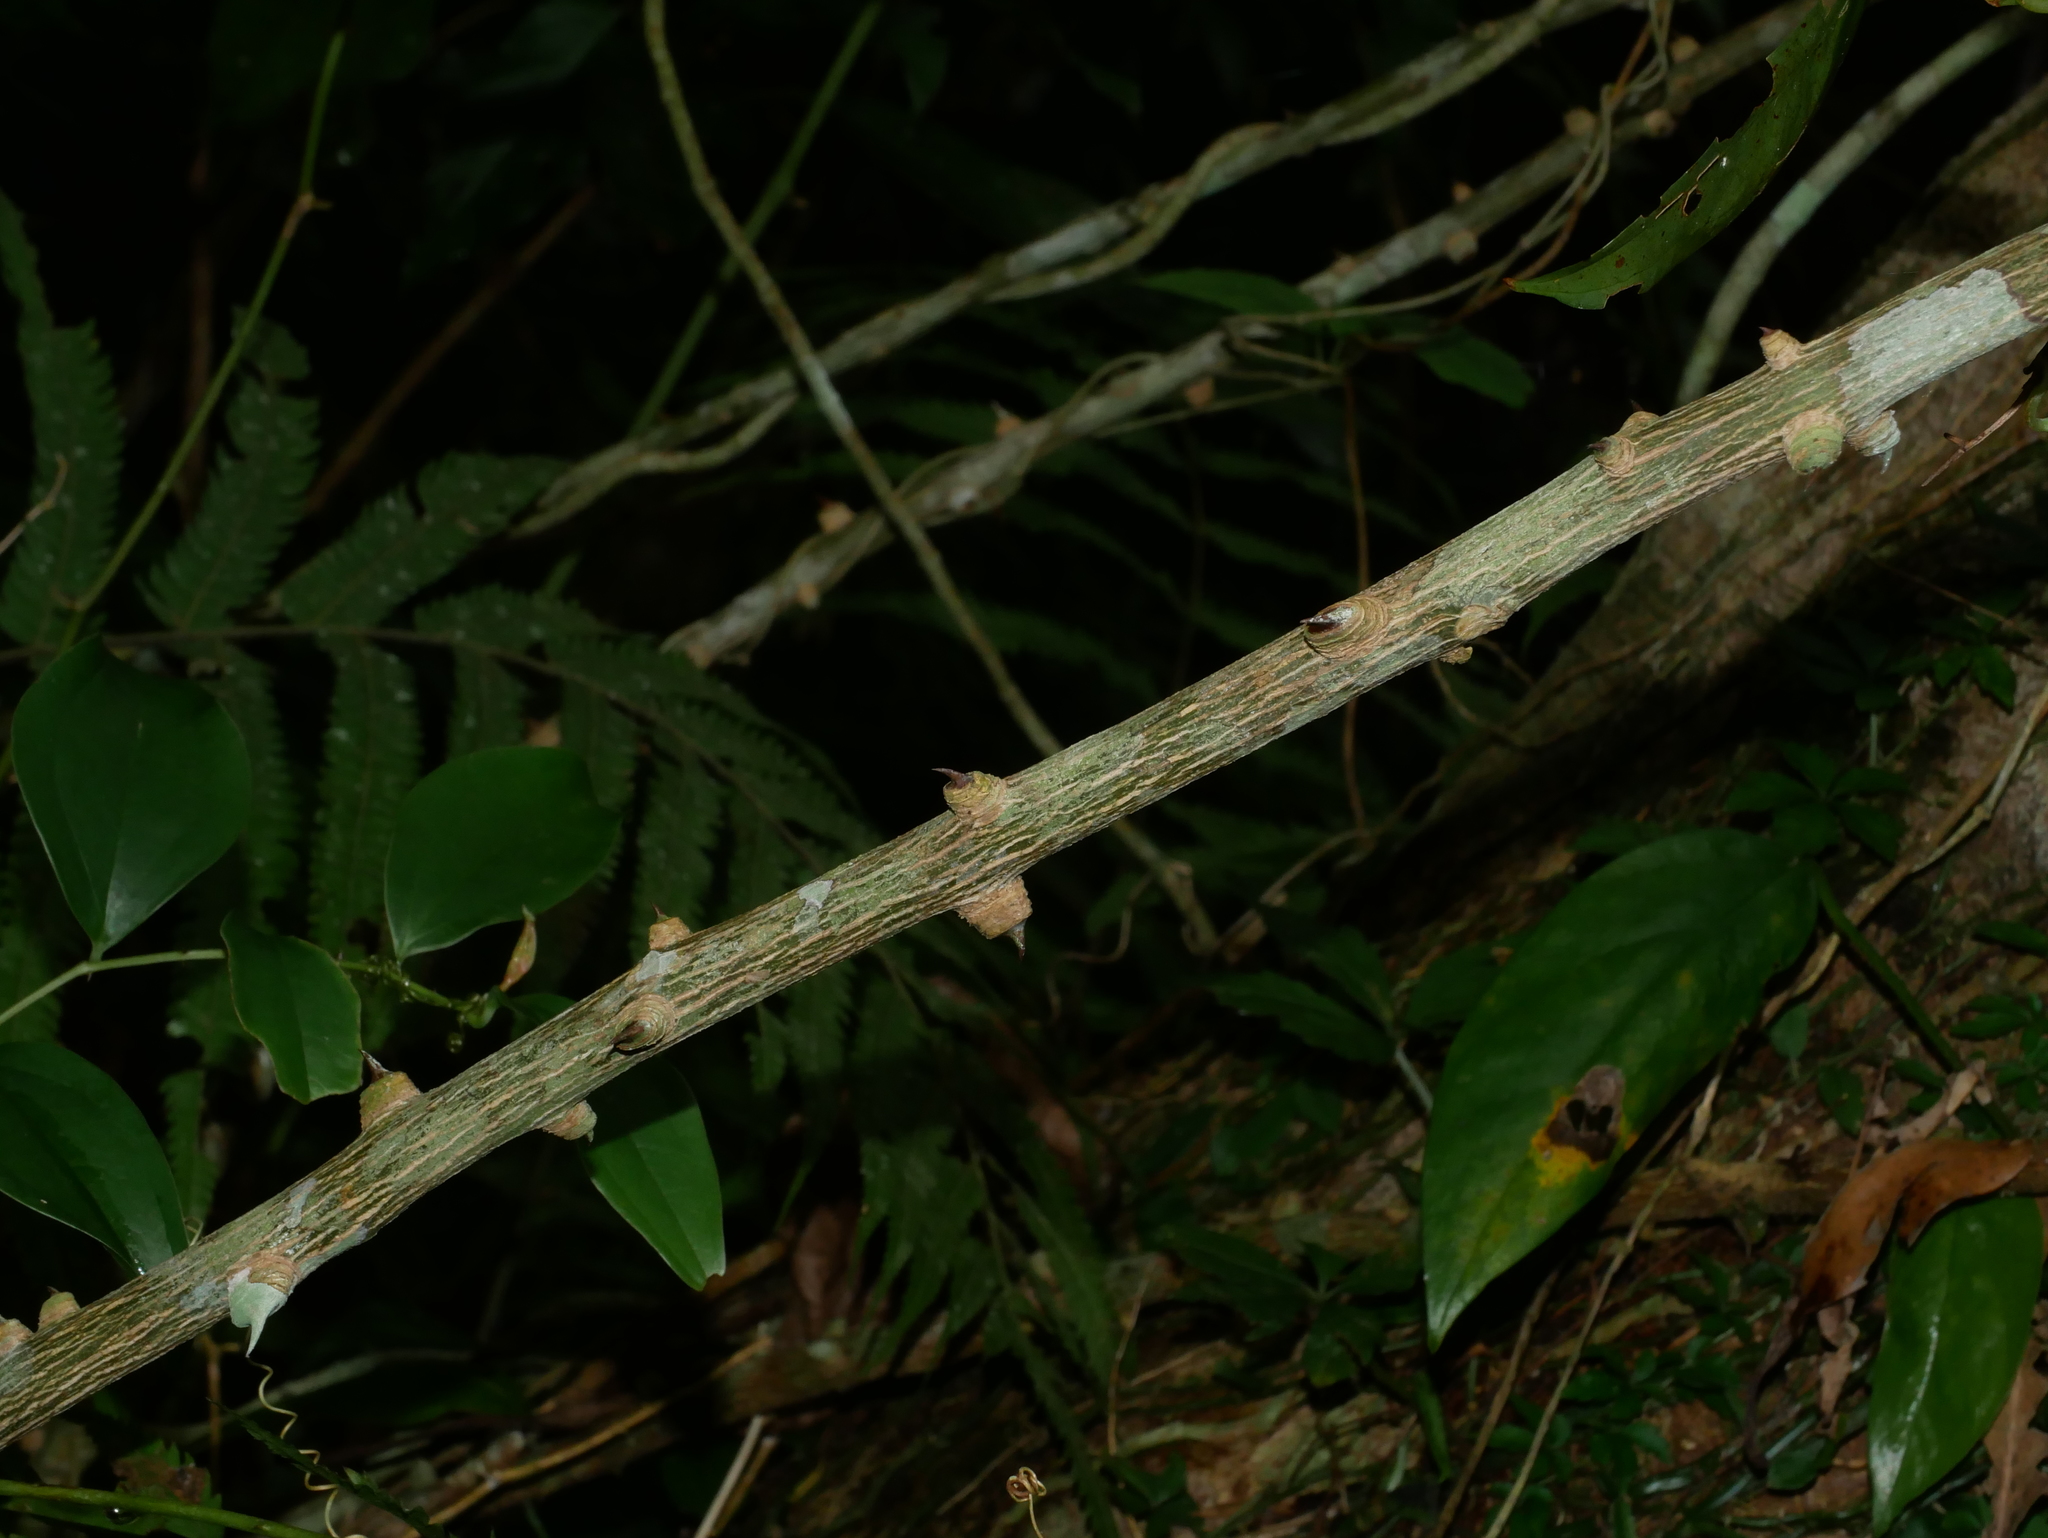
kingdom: Plantae
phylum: Tracheophyta
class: Magnoliopsida
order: Sapindales
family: Rutaceae
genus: Zanthoxylum
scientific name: Zanthoxylum asiaticum
